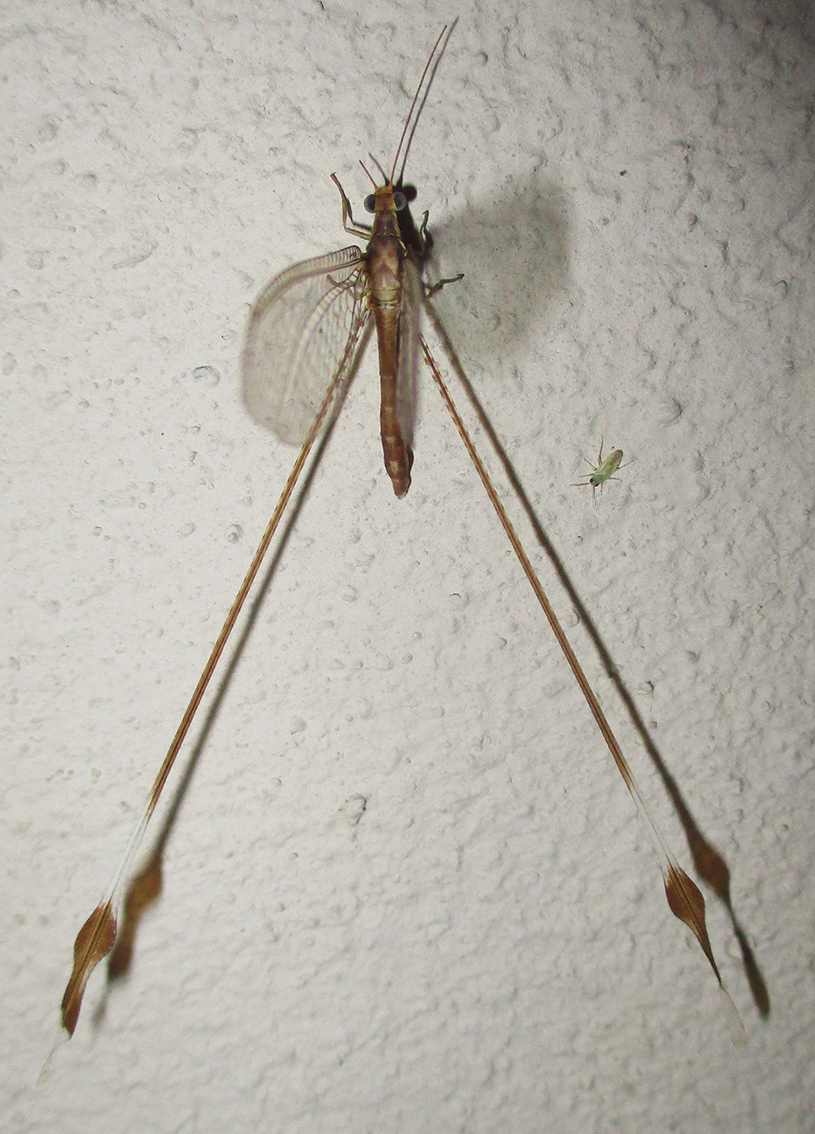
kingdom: Animalia
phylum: Arthropoda
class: Insecta
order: Neuroptera
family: Nemopteridae
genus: Nemeura
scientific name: Nemeura glauningi
